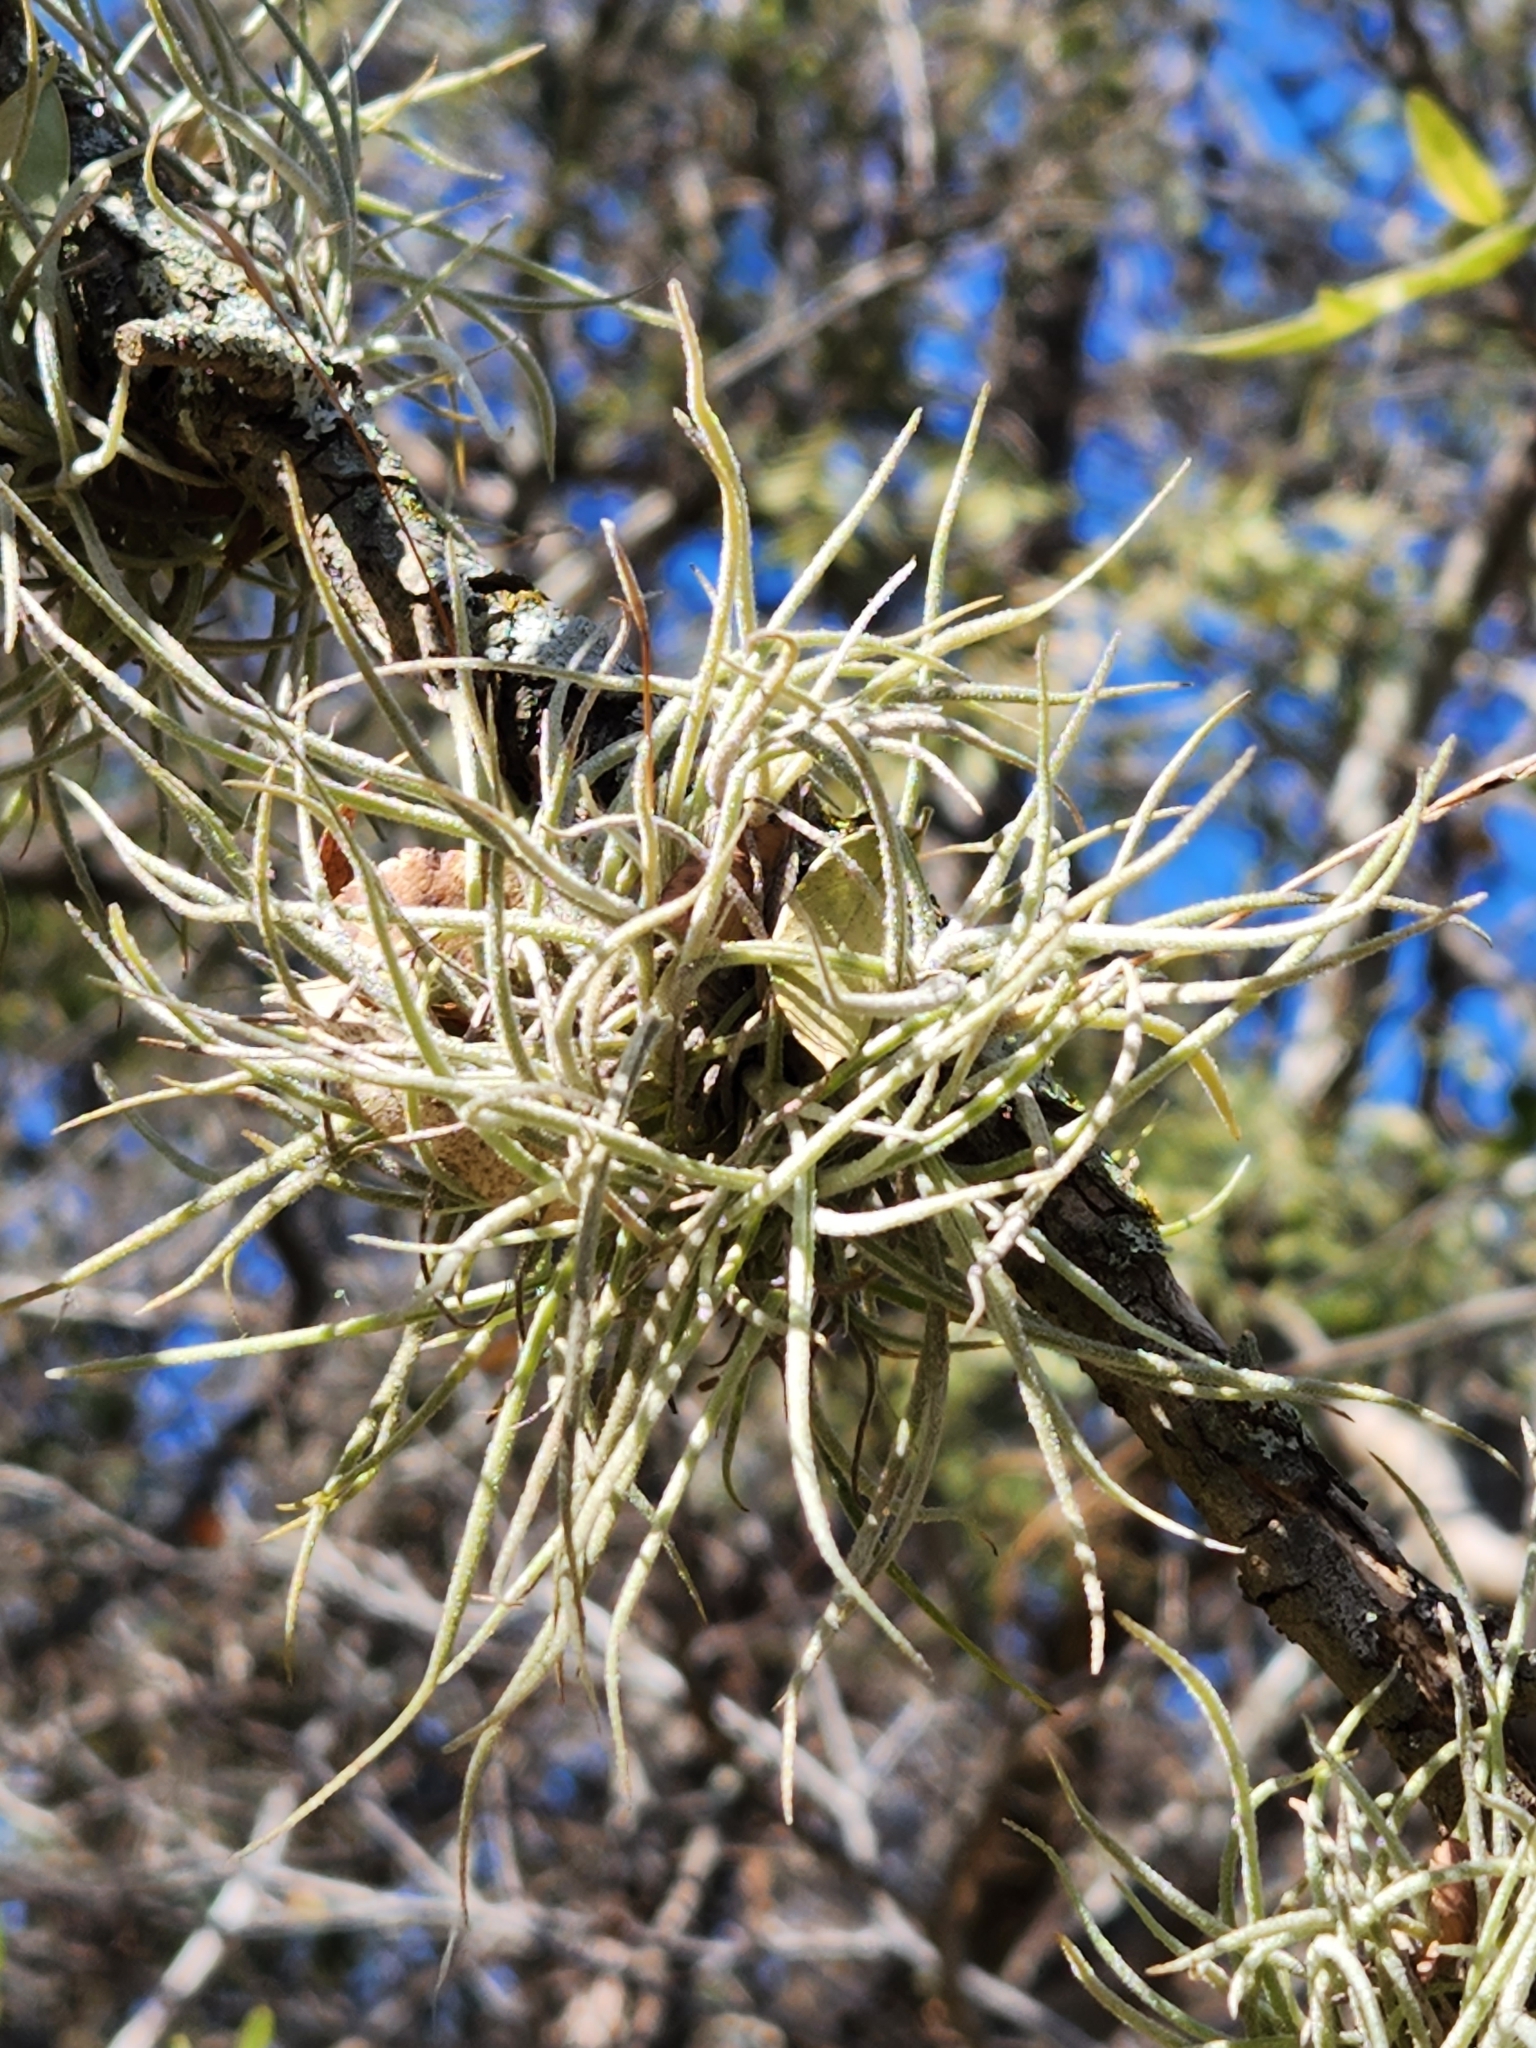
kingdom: Plantae
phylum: Tracheophyta
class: Liliopsida
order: Poales
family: Bromeliaceae
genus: Tillandsia
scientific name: Tillandsia recurvata
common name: Small ballmoss
